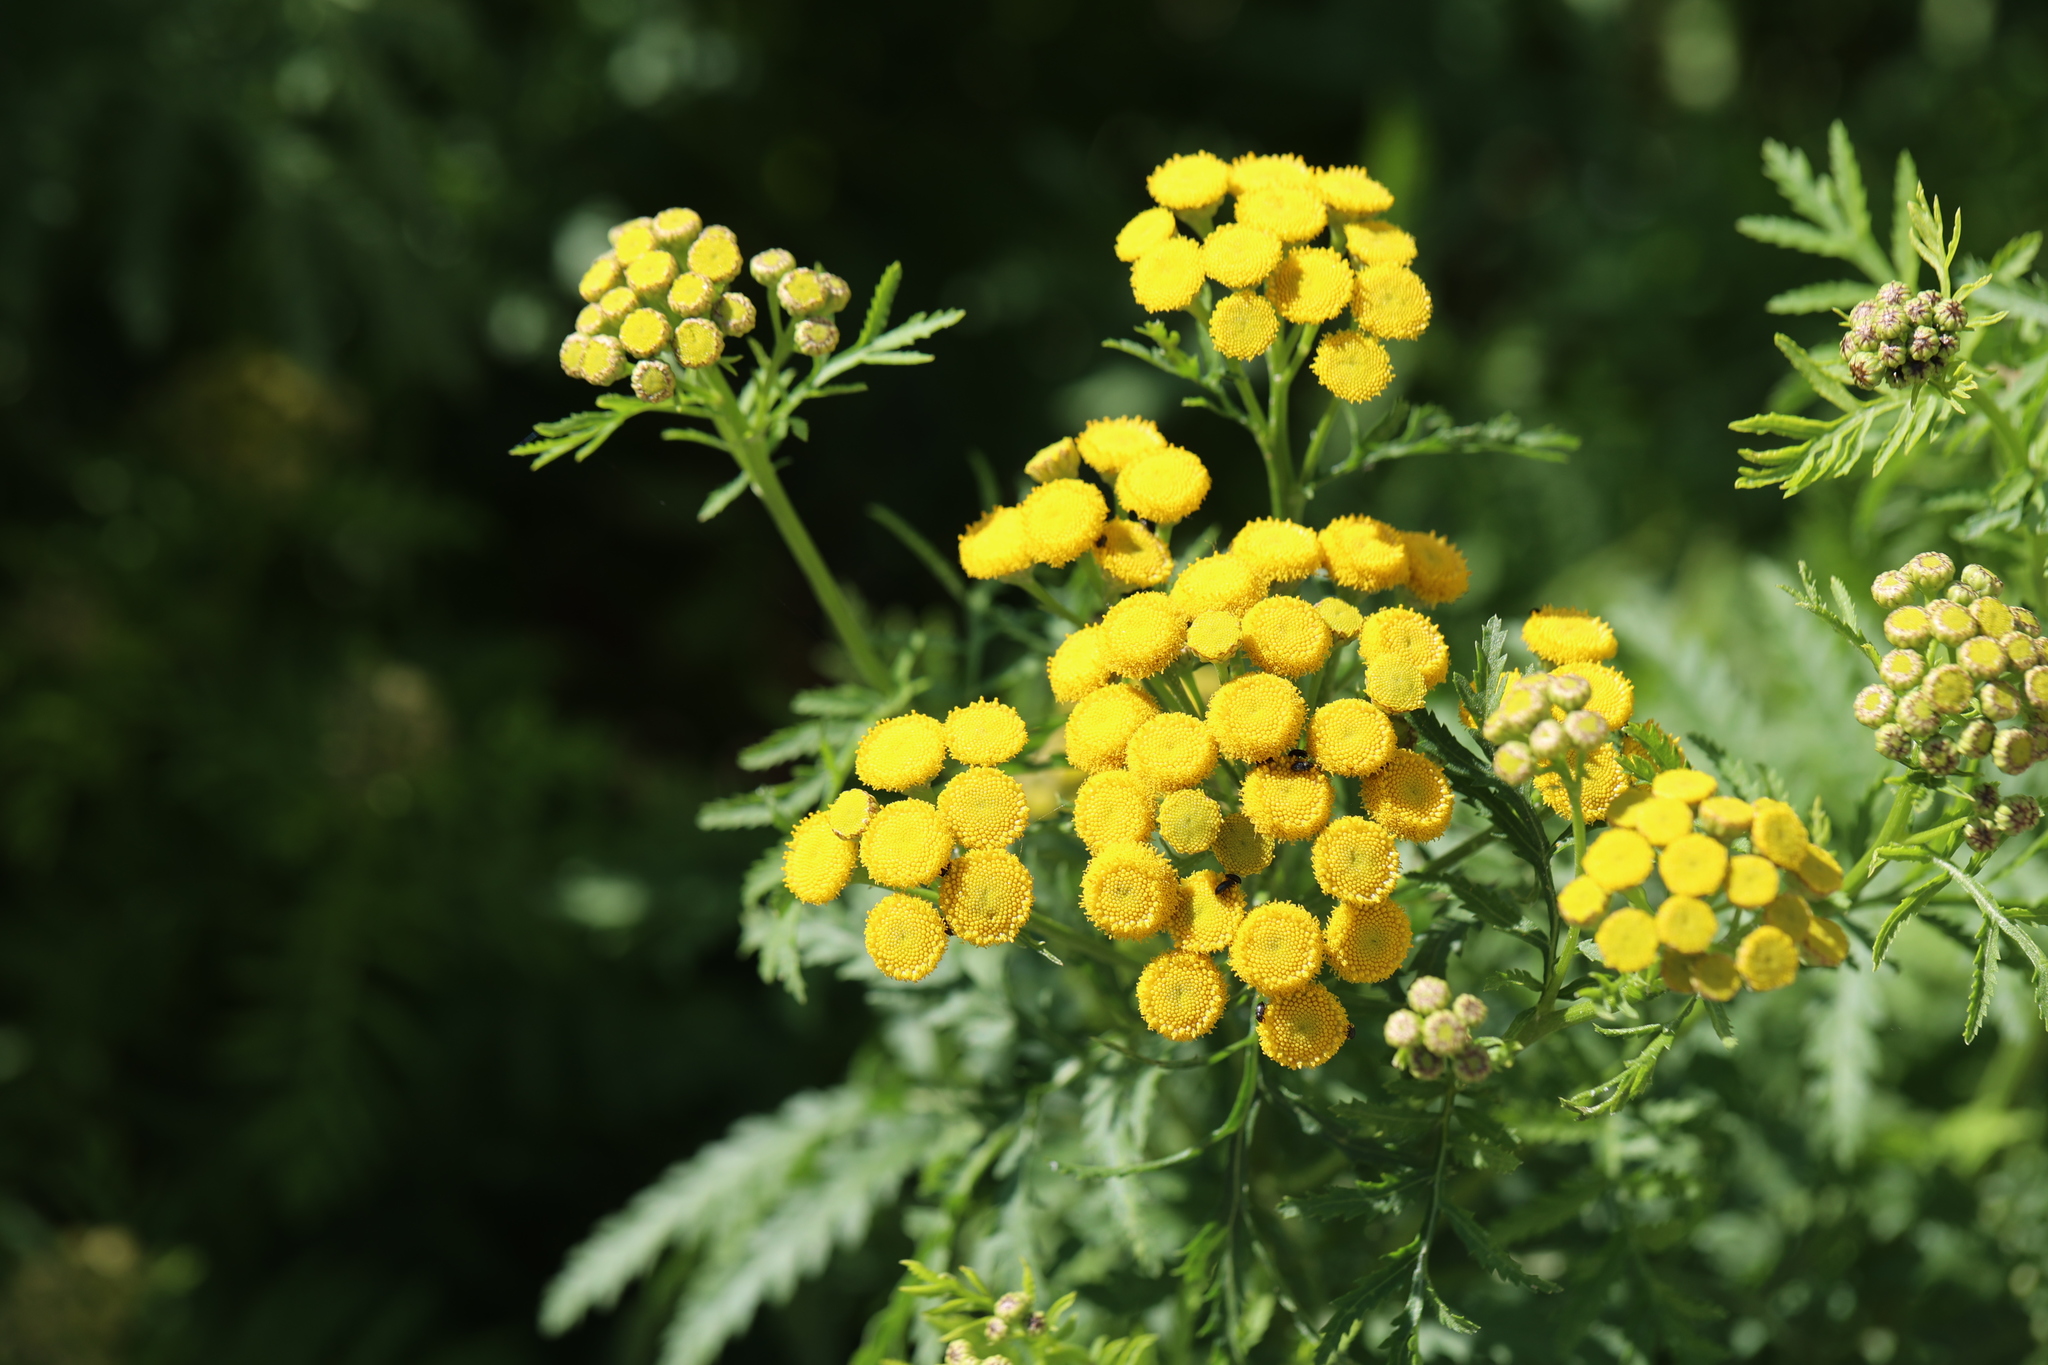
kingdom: Plantae
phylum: Tracheophyta
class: Magnoliopsida
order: Asterales
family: Asteraceae
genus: Tanacetum
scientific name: Tanacetum vulgare
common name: Common tansy
